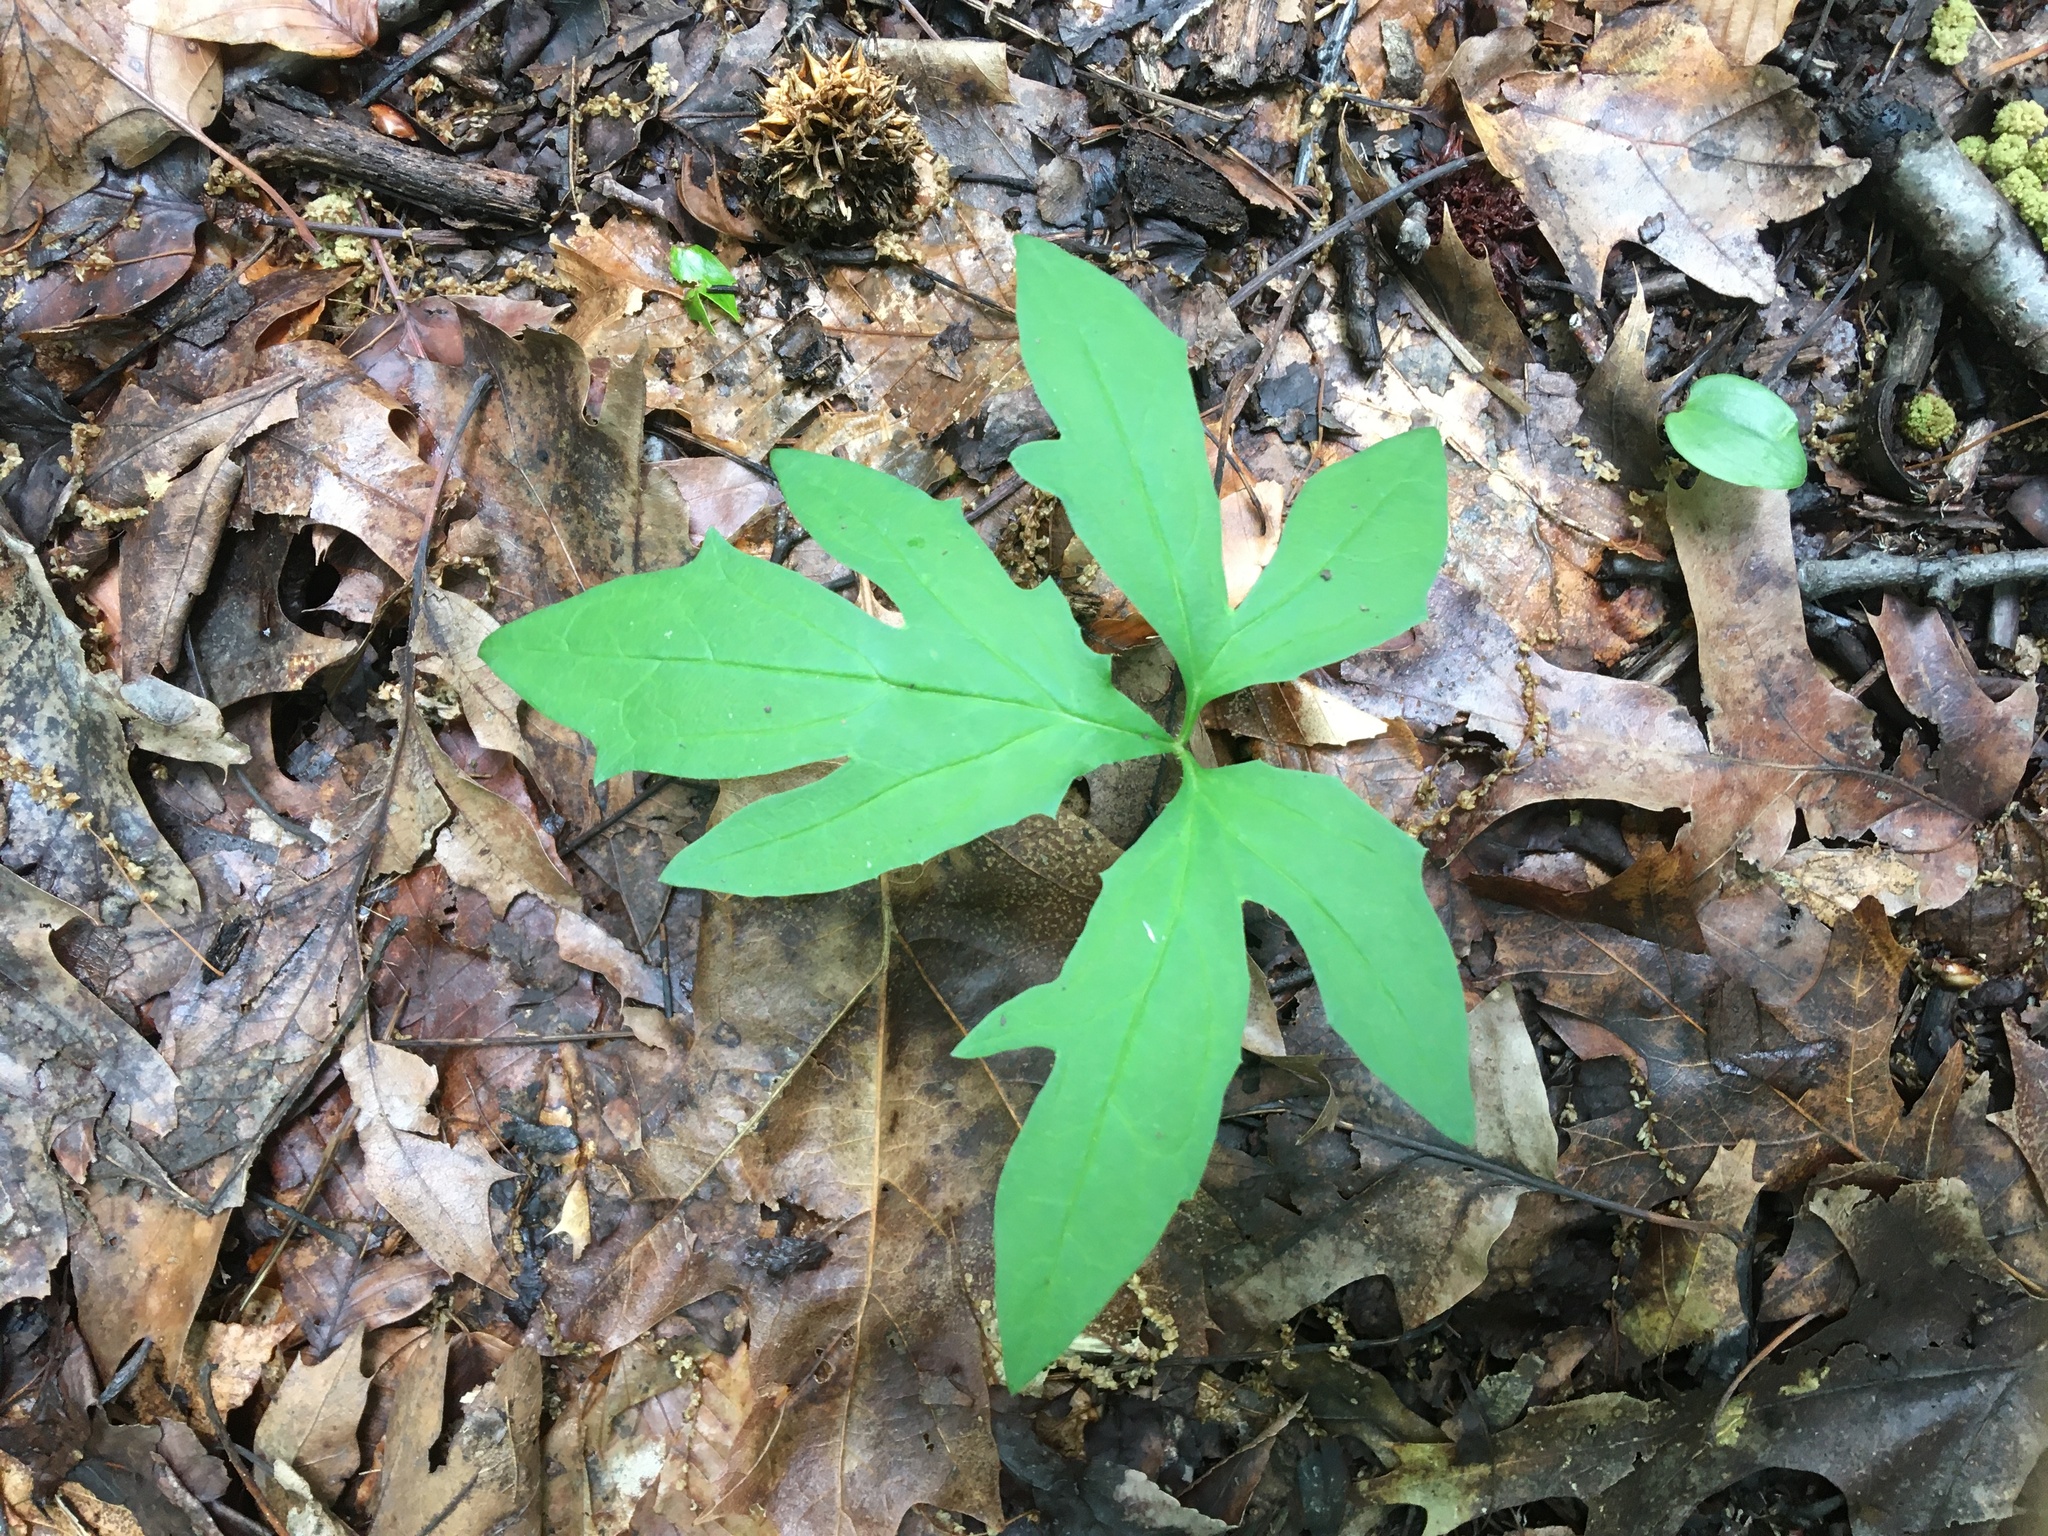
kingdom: Plantae
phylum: Tracheophyta
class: Magnoliopsida
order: Asterales
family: Asteraceae
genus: Nabalus
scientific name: Nabalus trifoliolatus
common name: Gall-of-the-earth
